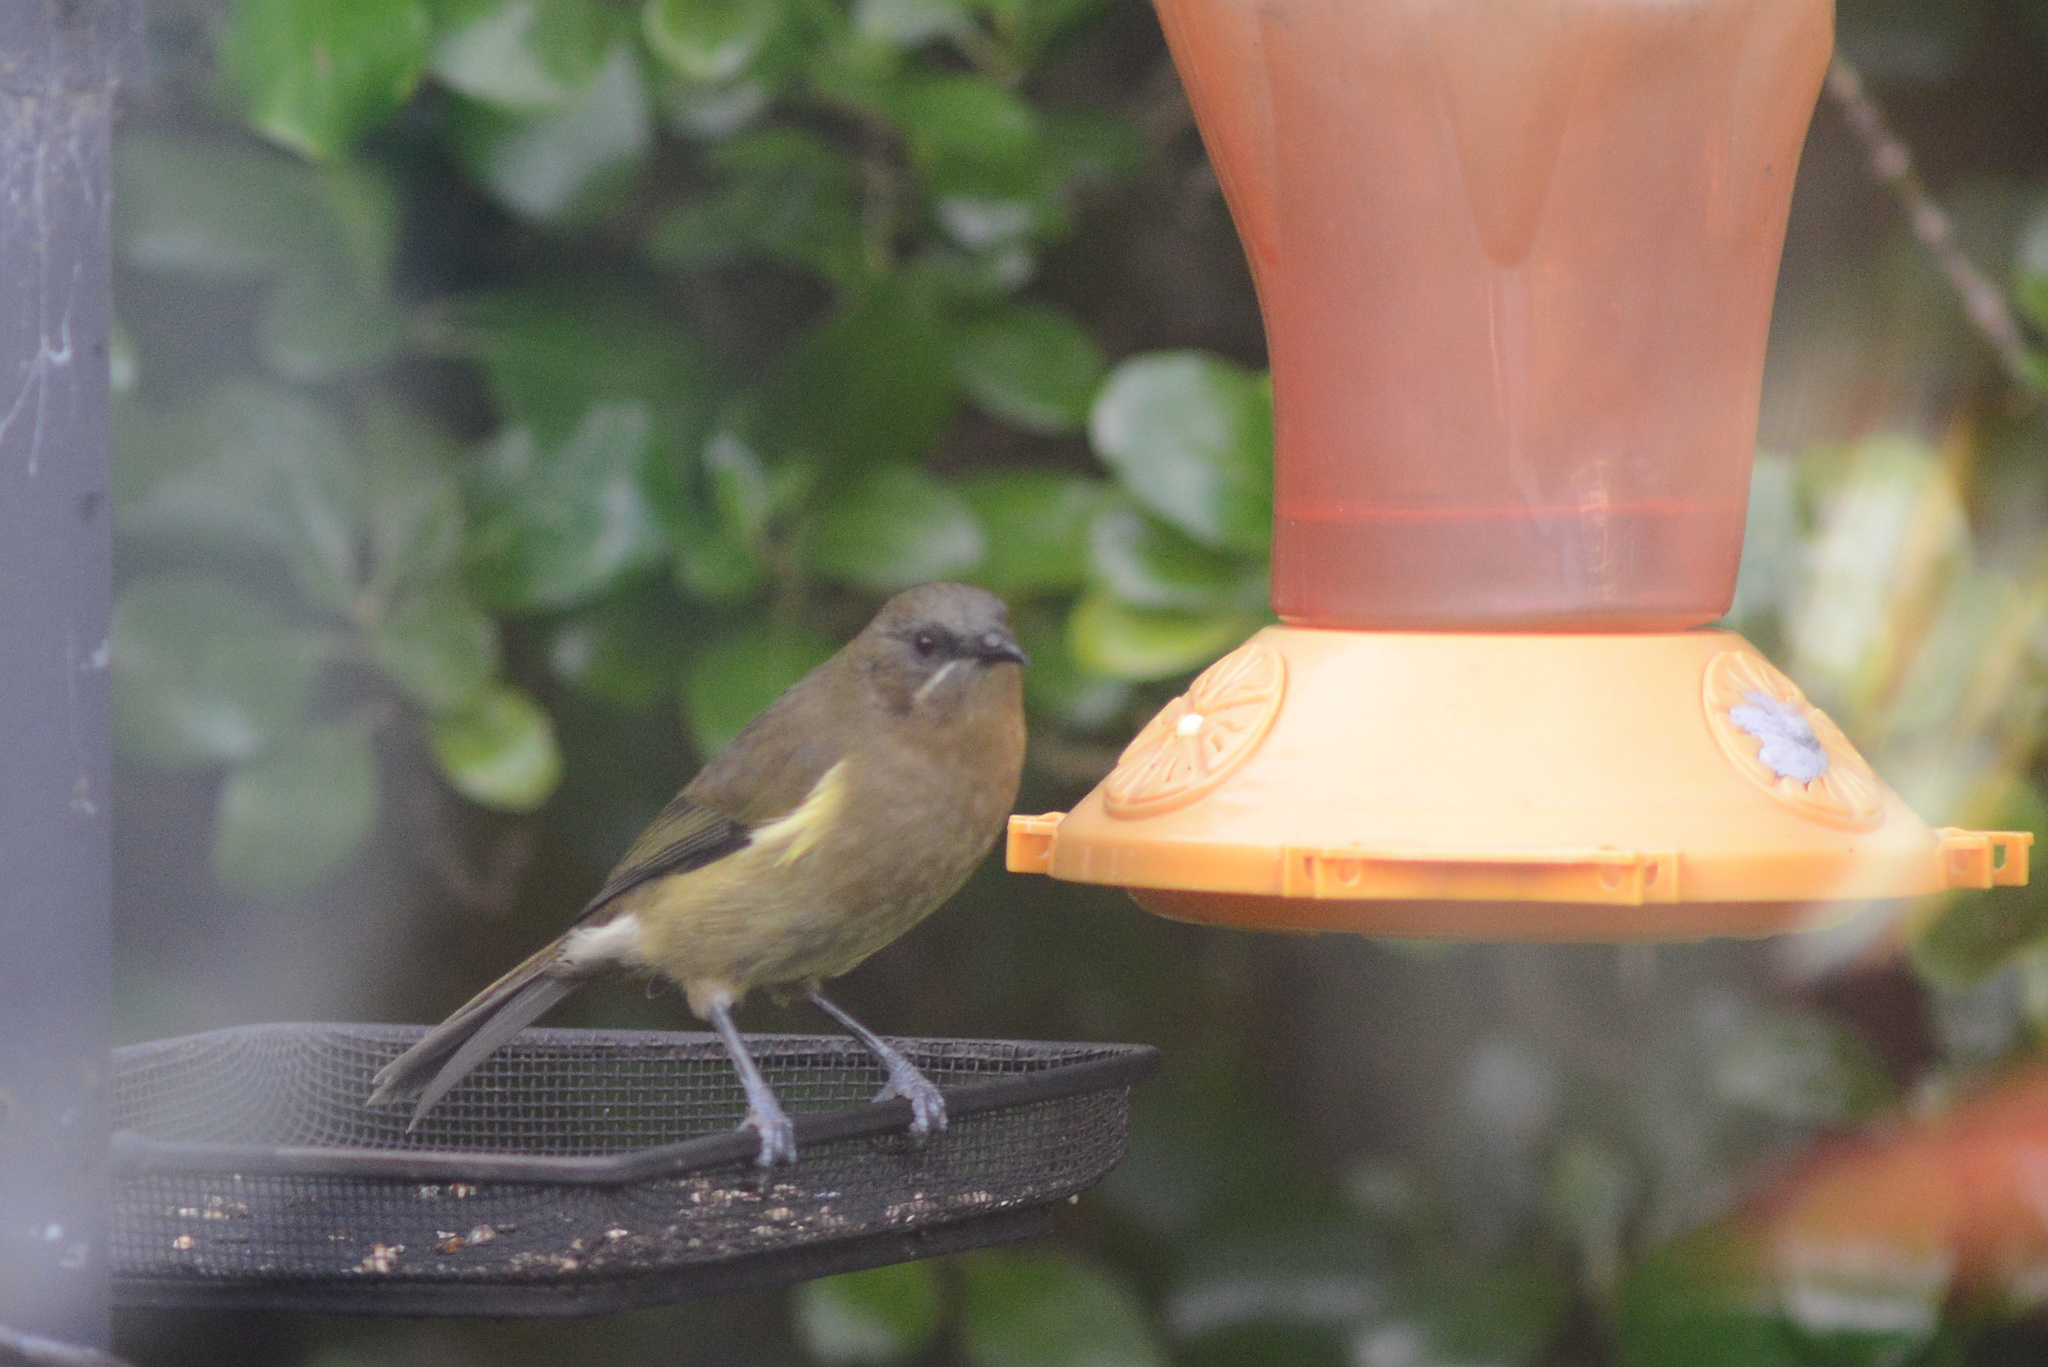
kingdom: Animalia
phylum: Chordata
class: Aves
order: Passeriformes
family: Meliphagidae
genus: Anthornis
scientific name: Anthornis melanura
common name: New zealand bellbird
